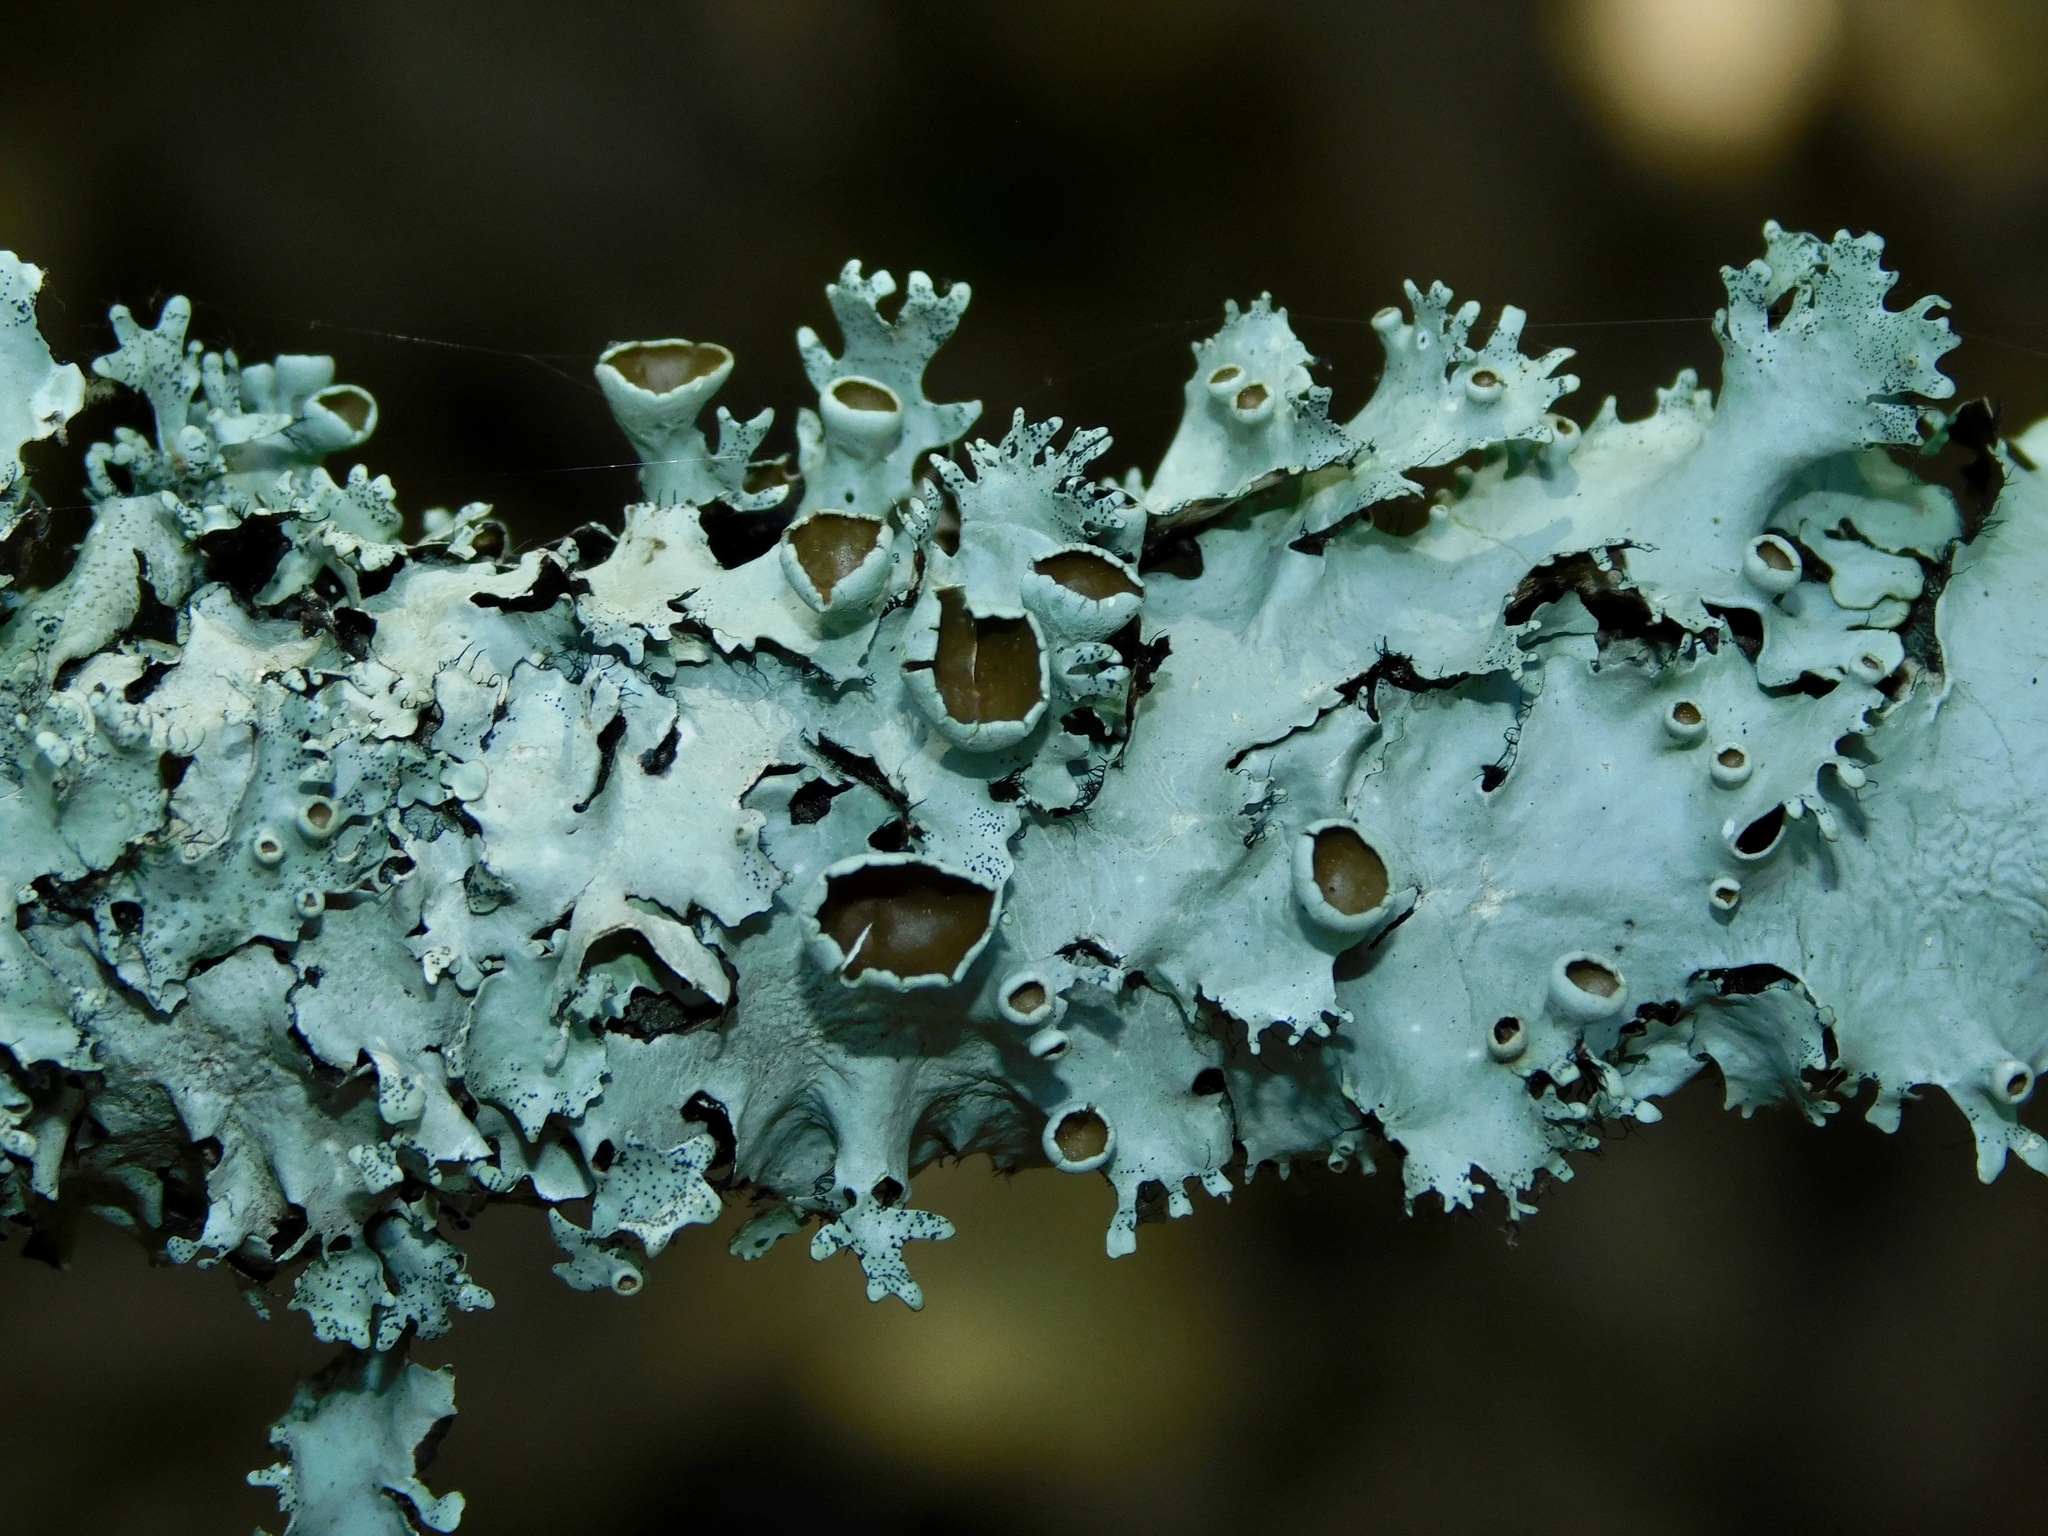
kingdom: Fungi
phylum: Ascomycota
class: Lecanoromycetes
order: Lecanorales
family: Parmeliaceae
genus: Parmotrema
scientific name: Parmotrema cetratum
